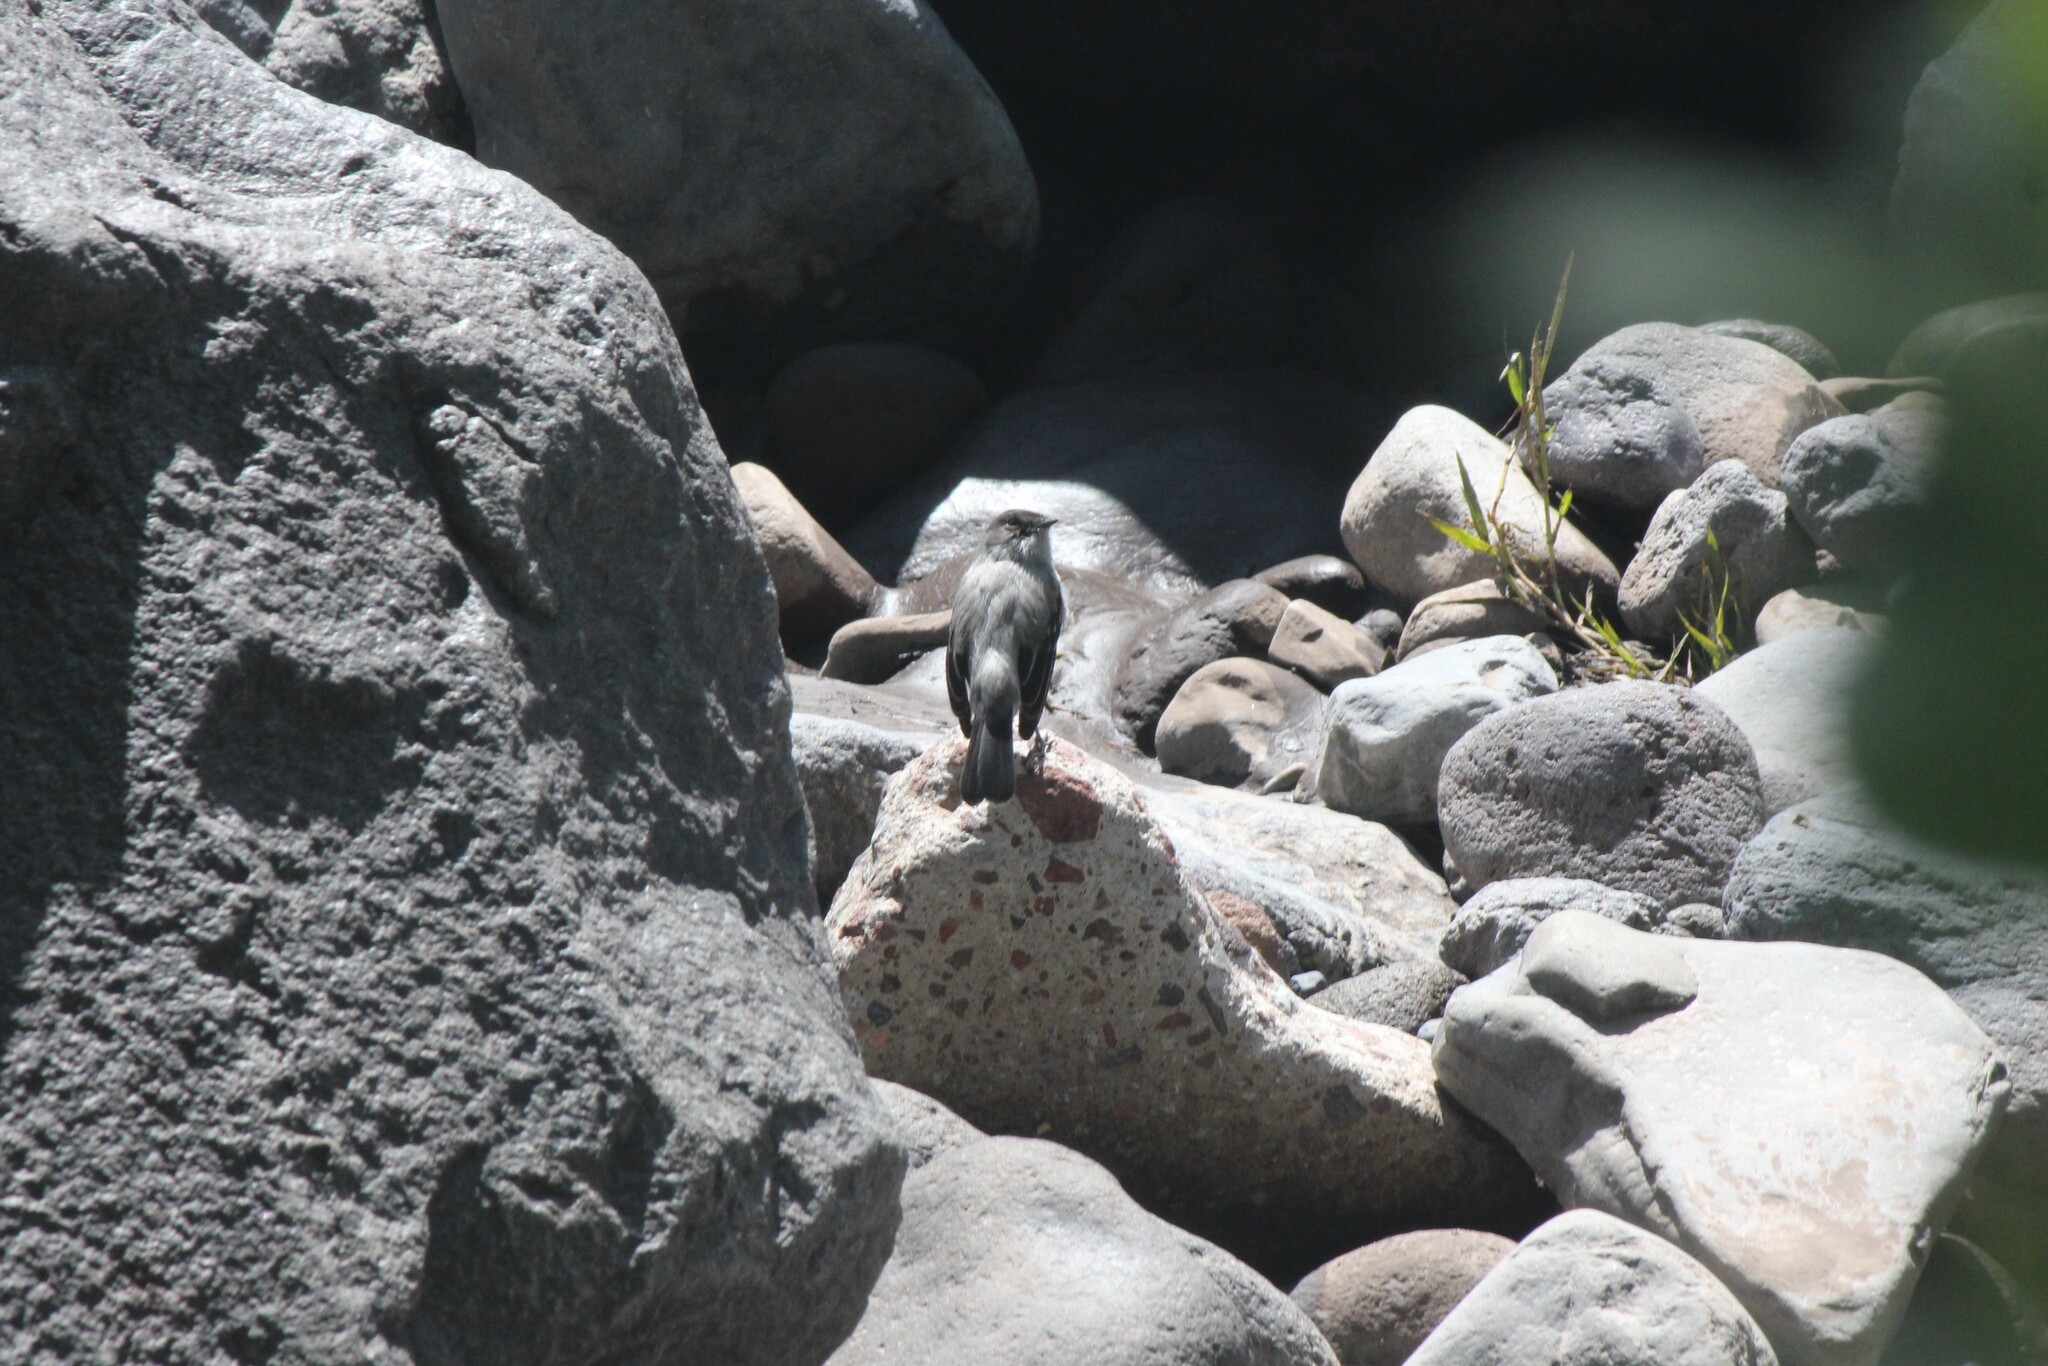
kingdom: Animalia
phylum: Chordata
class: Aves
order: Passeriformes
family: Tyrannidae
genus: Serpophaga
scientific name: Serpophaga cinerea
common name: Torrent tyrannulet
